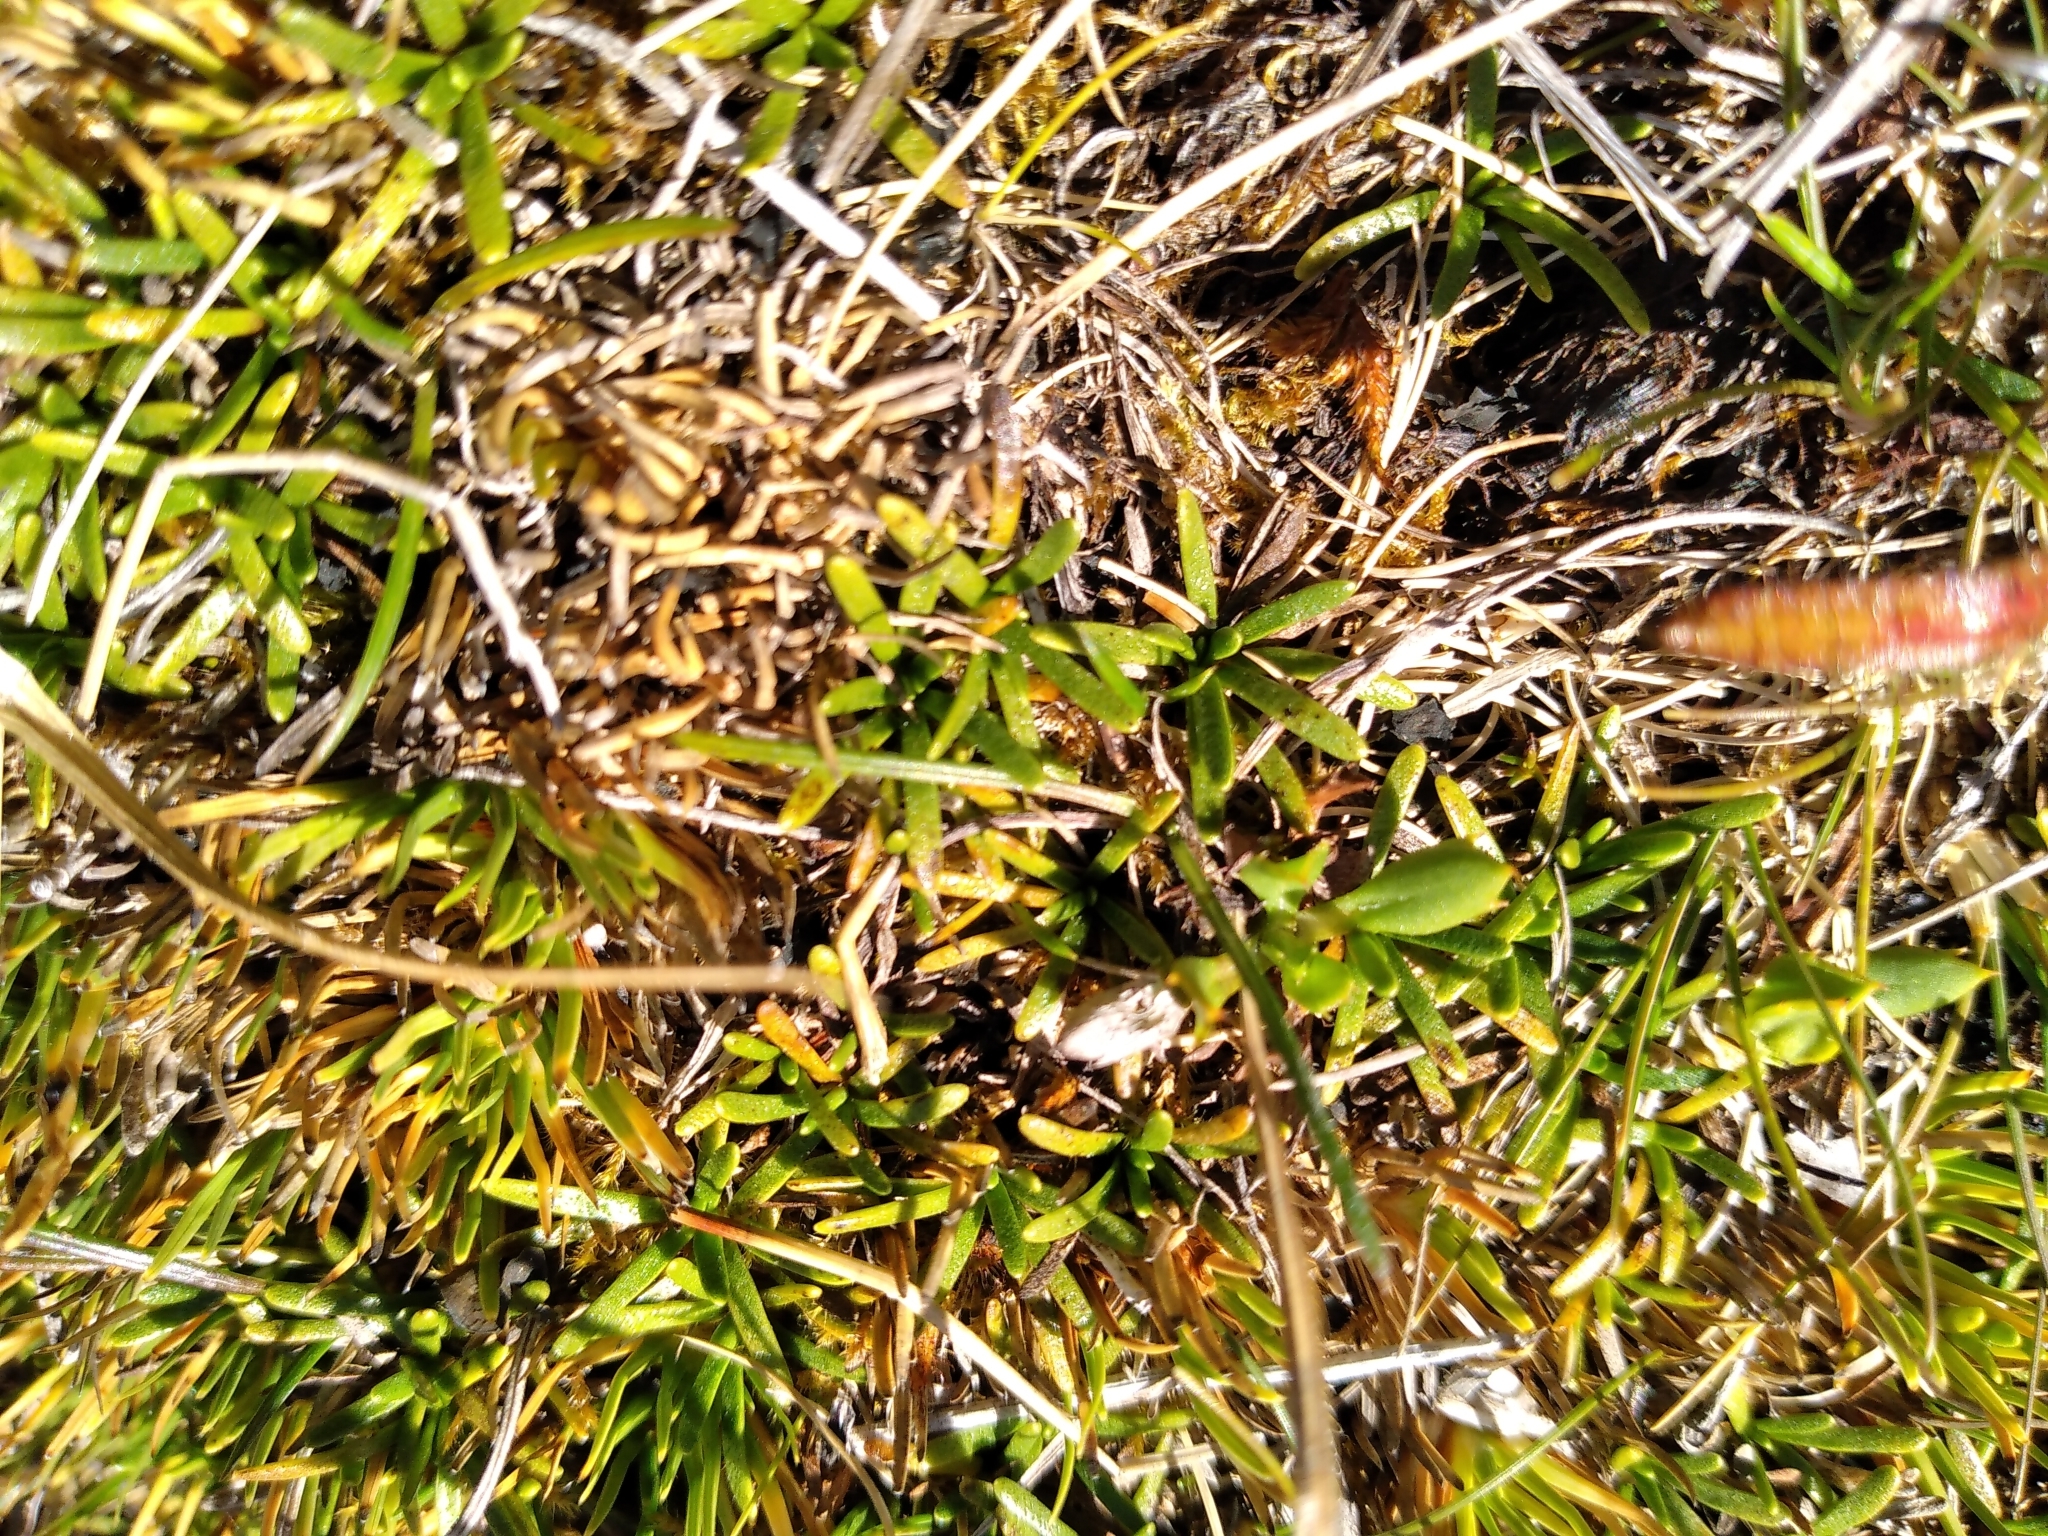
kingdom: Plantae
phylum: Tracheophyta
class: Magnoliopsida
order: Asterales
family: Asteraceae
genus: Abrotanella
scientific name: Abrotanella caespitosa
